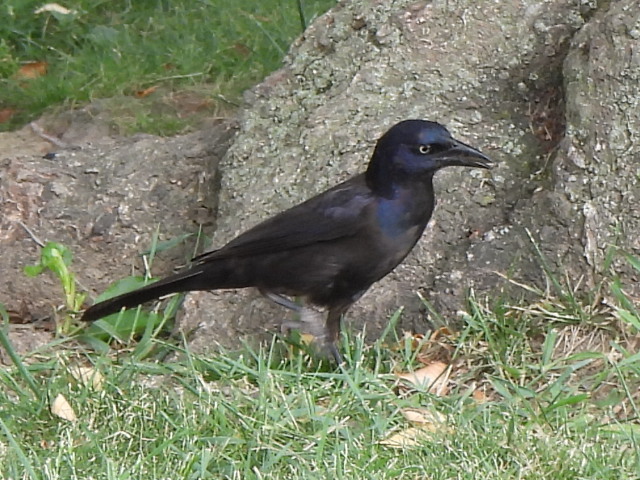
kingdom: Animalia
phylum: Chordata
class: Aves
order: Passeriformes
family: Icteridae
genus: Quiscalus
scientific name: Quiscalus quiscula
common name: Common grackle
